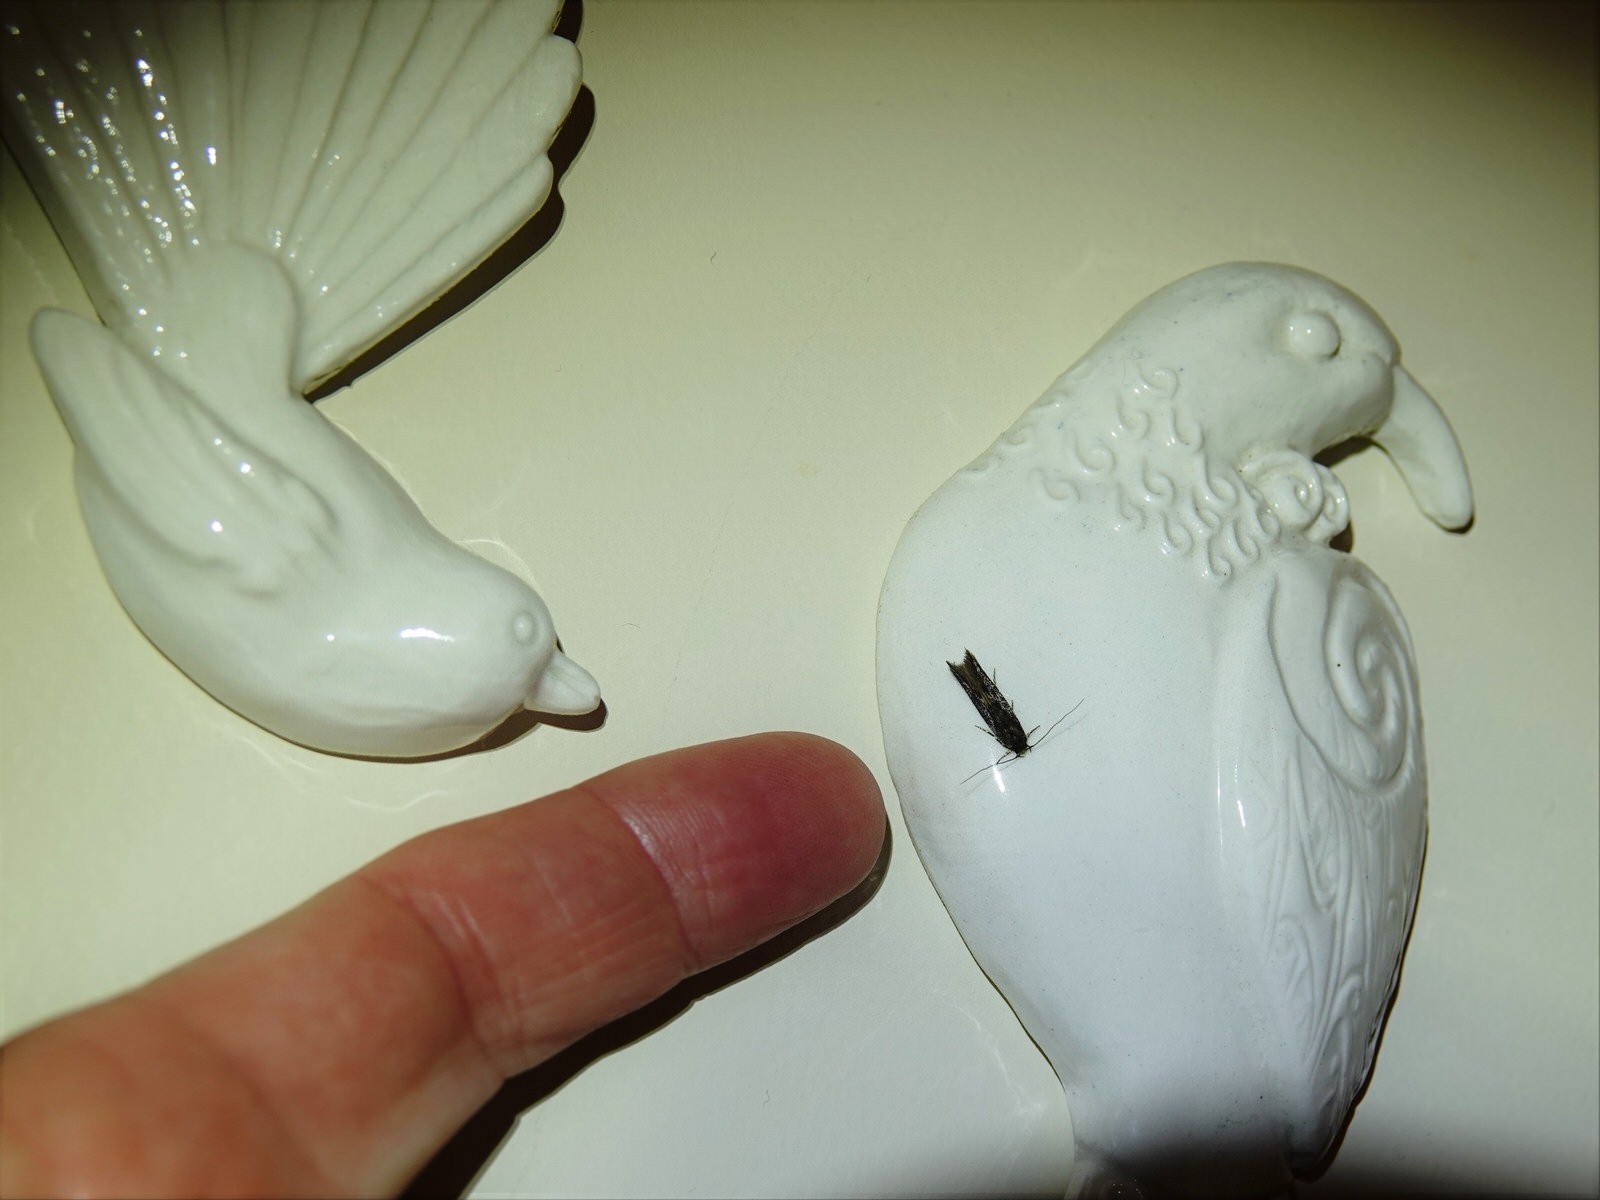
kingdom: Animalia
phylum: Arthropoda
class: Insecta
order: Lepidoptera
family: Tineidae
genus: Opogona
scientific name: Opogona omoscopa
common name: Moth
